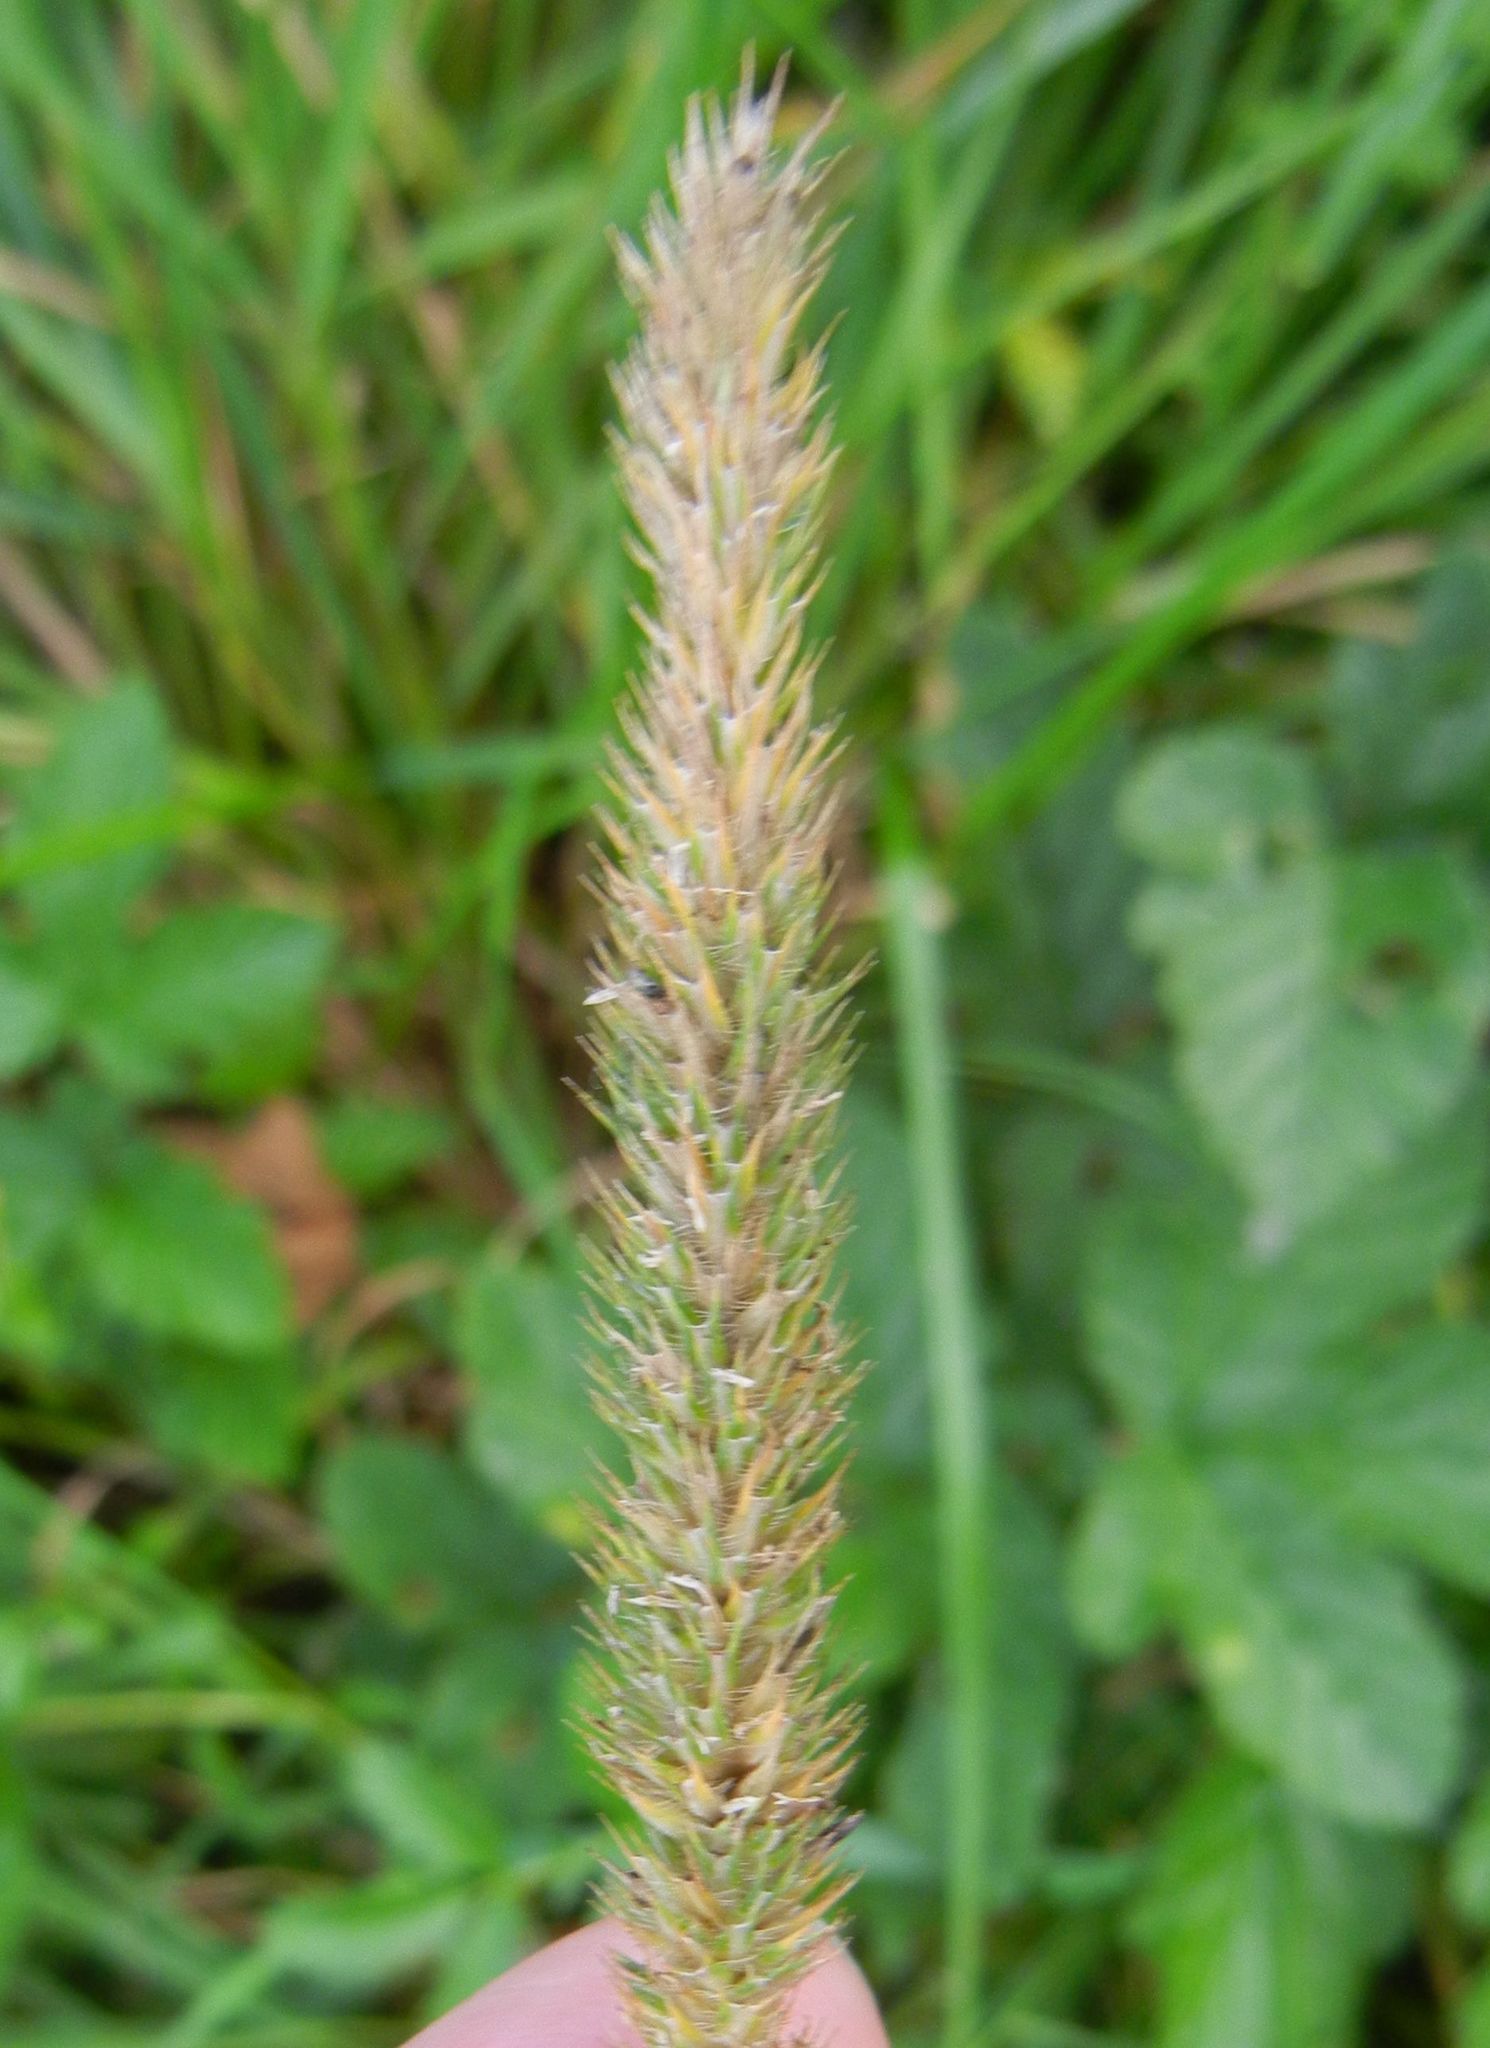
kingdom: Plantae
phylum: Tracheophyta
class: Liliopsida
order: Poales
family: Poaceae
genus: Phleum
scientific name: Phleum pratense
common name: Timothy grass
